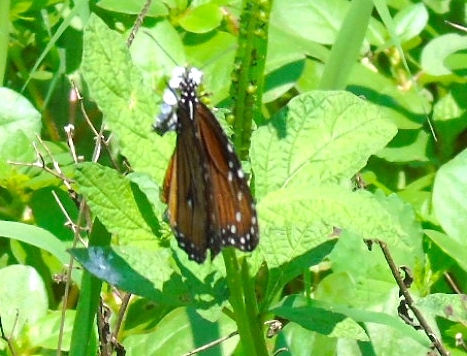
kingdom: Animalia
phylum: Arthropoda
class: Insecta
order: Lepidoptera
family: Nymphalidae
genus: Danaus
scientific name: Danaus eresimus
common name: Soldier
